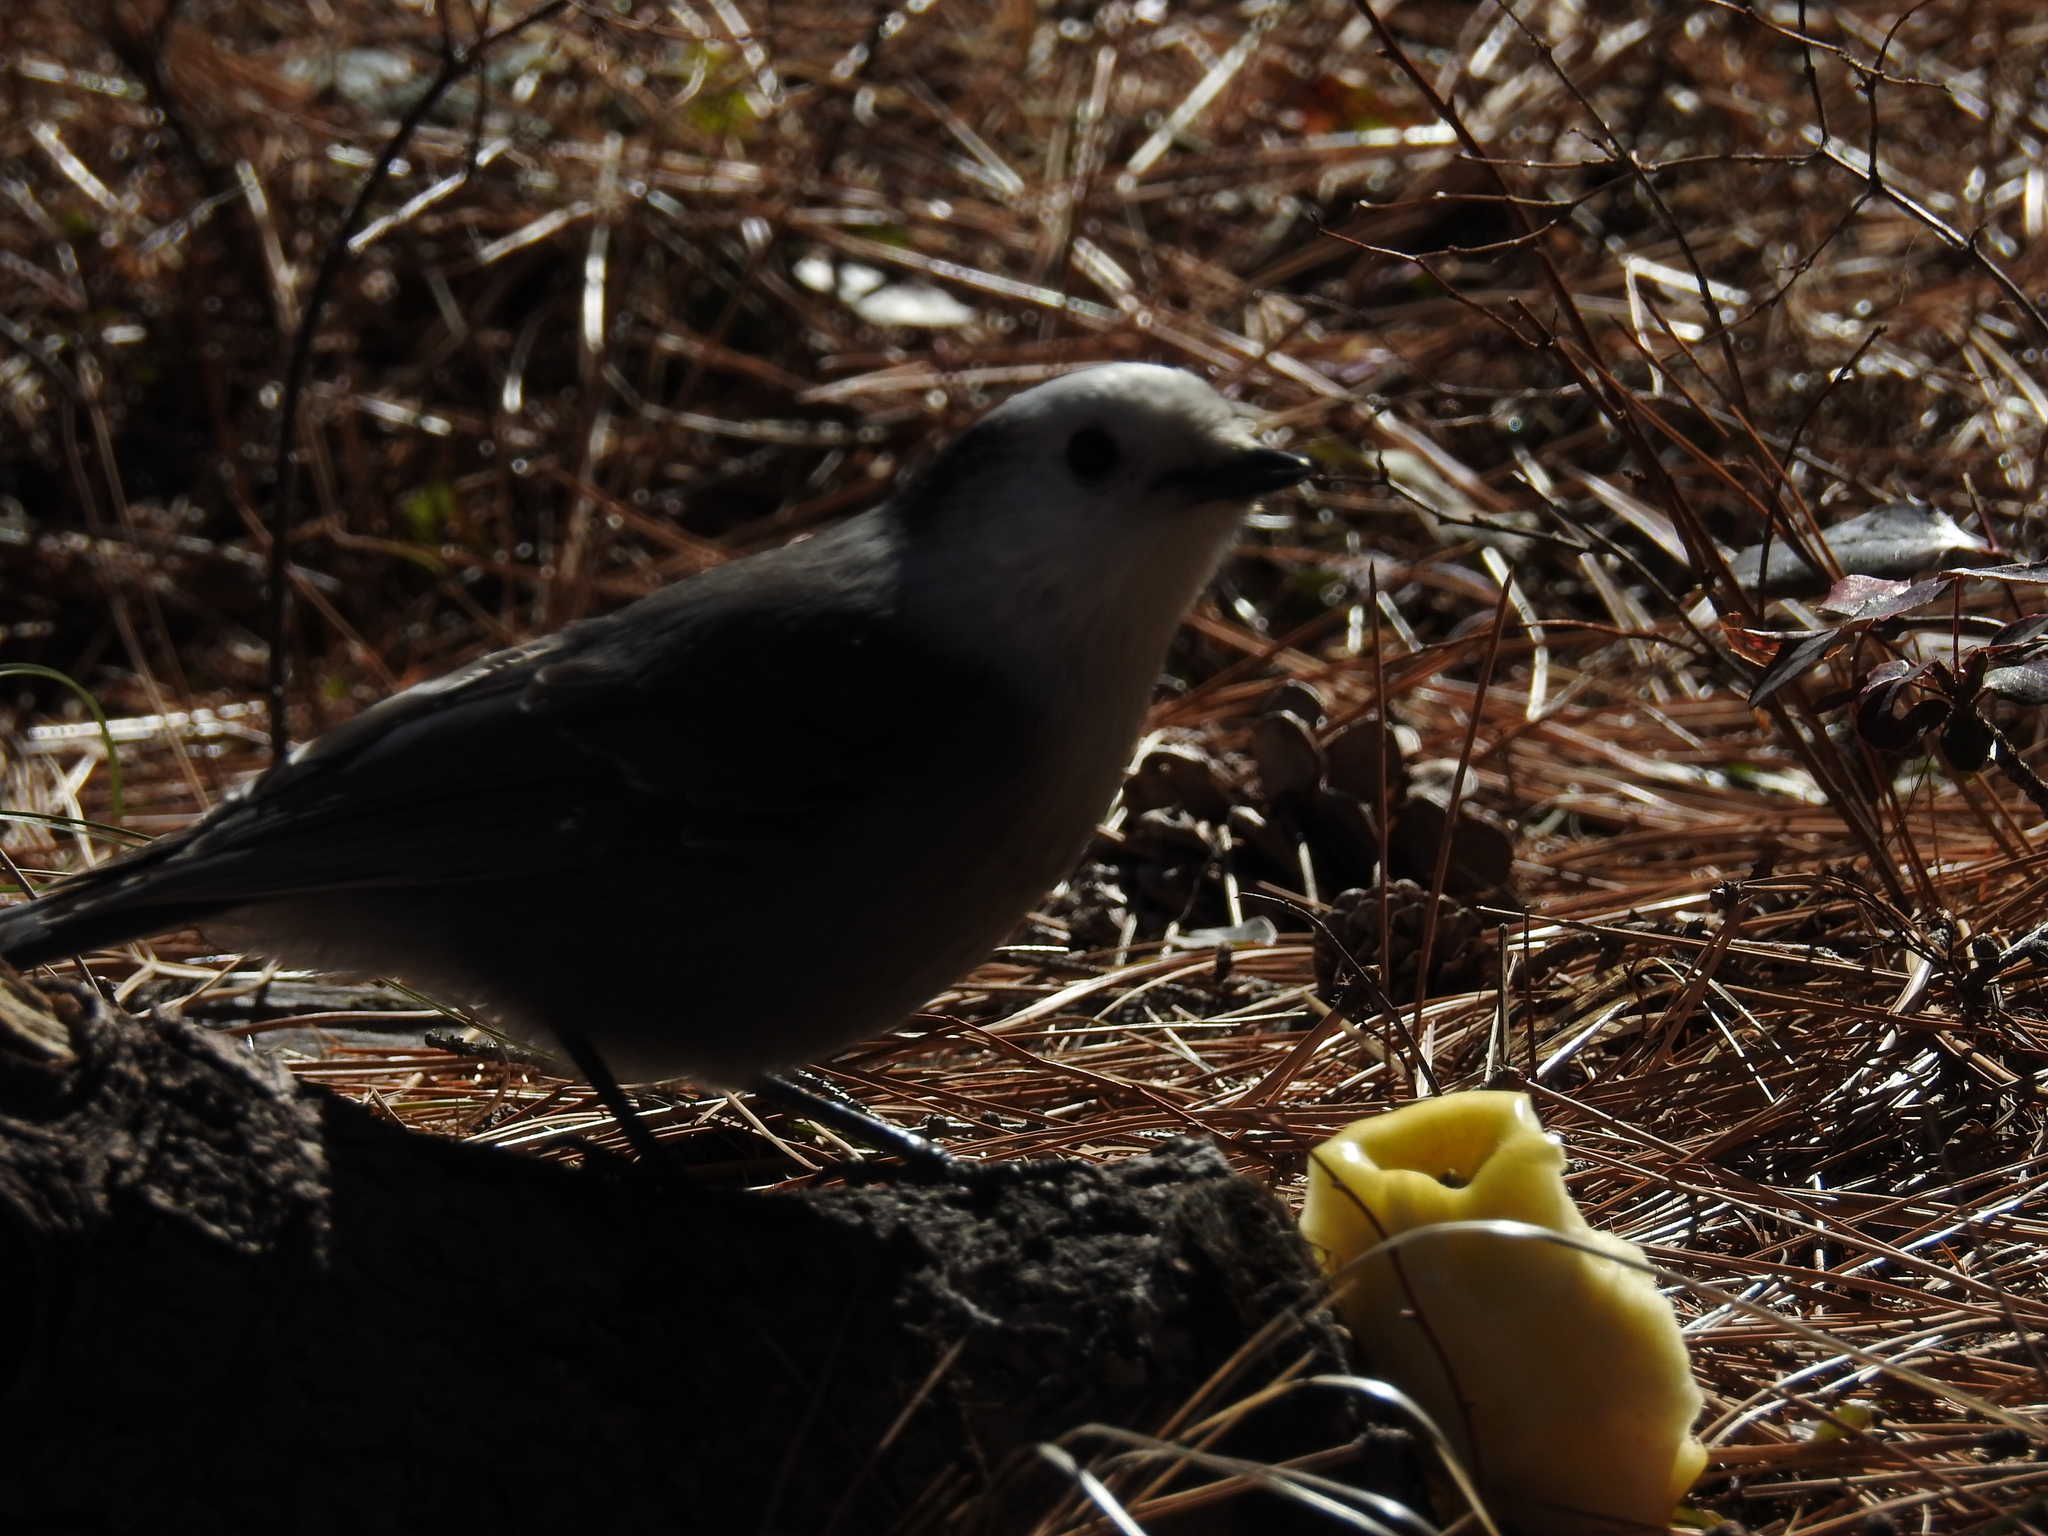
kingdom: Animalia
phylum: Chordata
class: Aves
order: Passeriformes
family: Corvidae
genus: Perisoreus
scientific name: Perisoreus canadensis
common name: Gray jay
